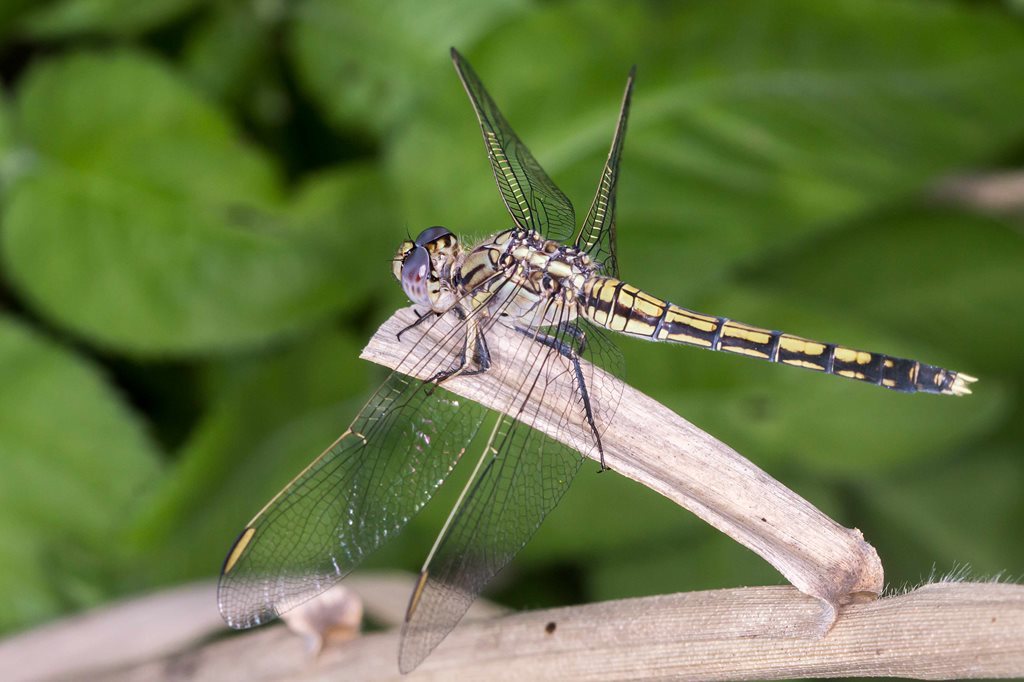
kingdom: Animalia
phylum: Arthropoda
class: Insecta
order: Odonata
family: Libellulidae
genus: Orthetrum
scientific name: Orthetrum caledonicum
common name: Blue skimmer
